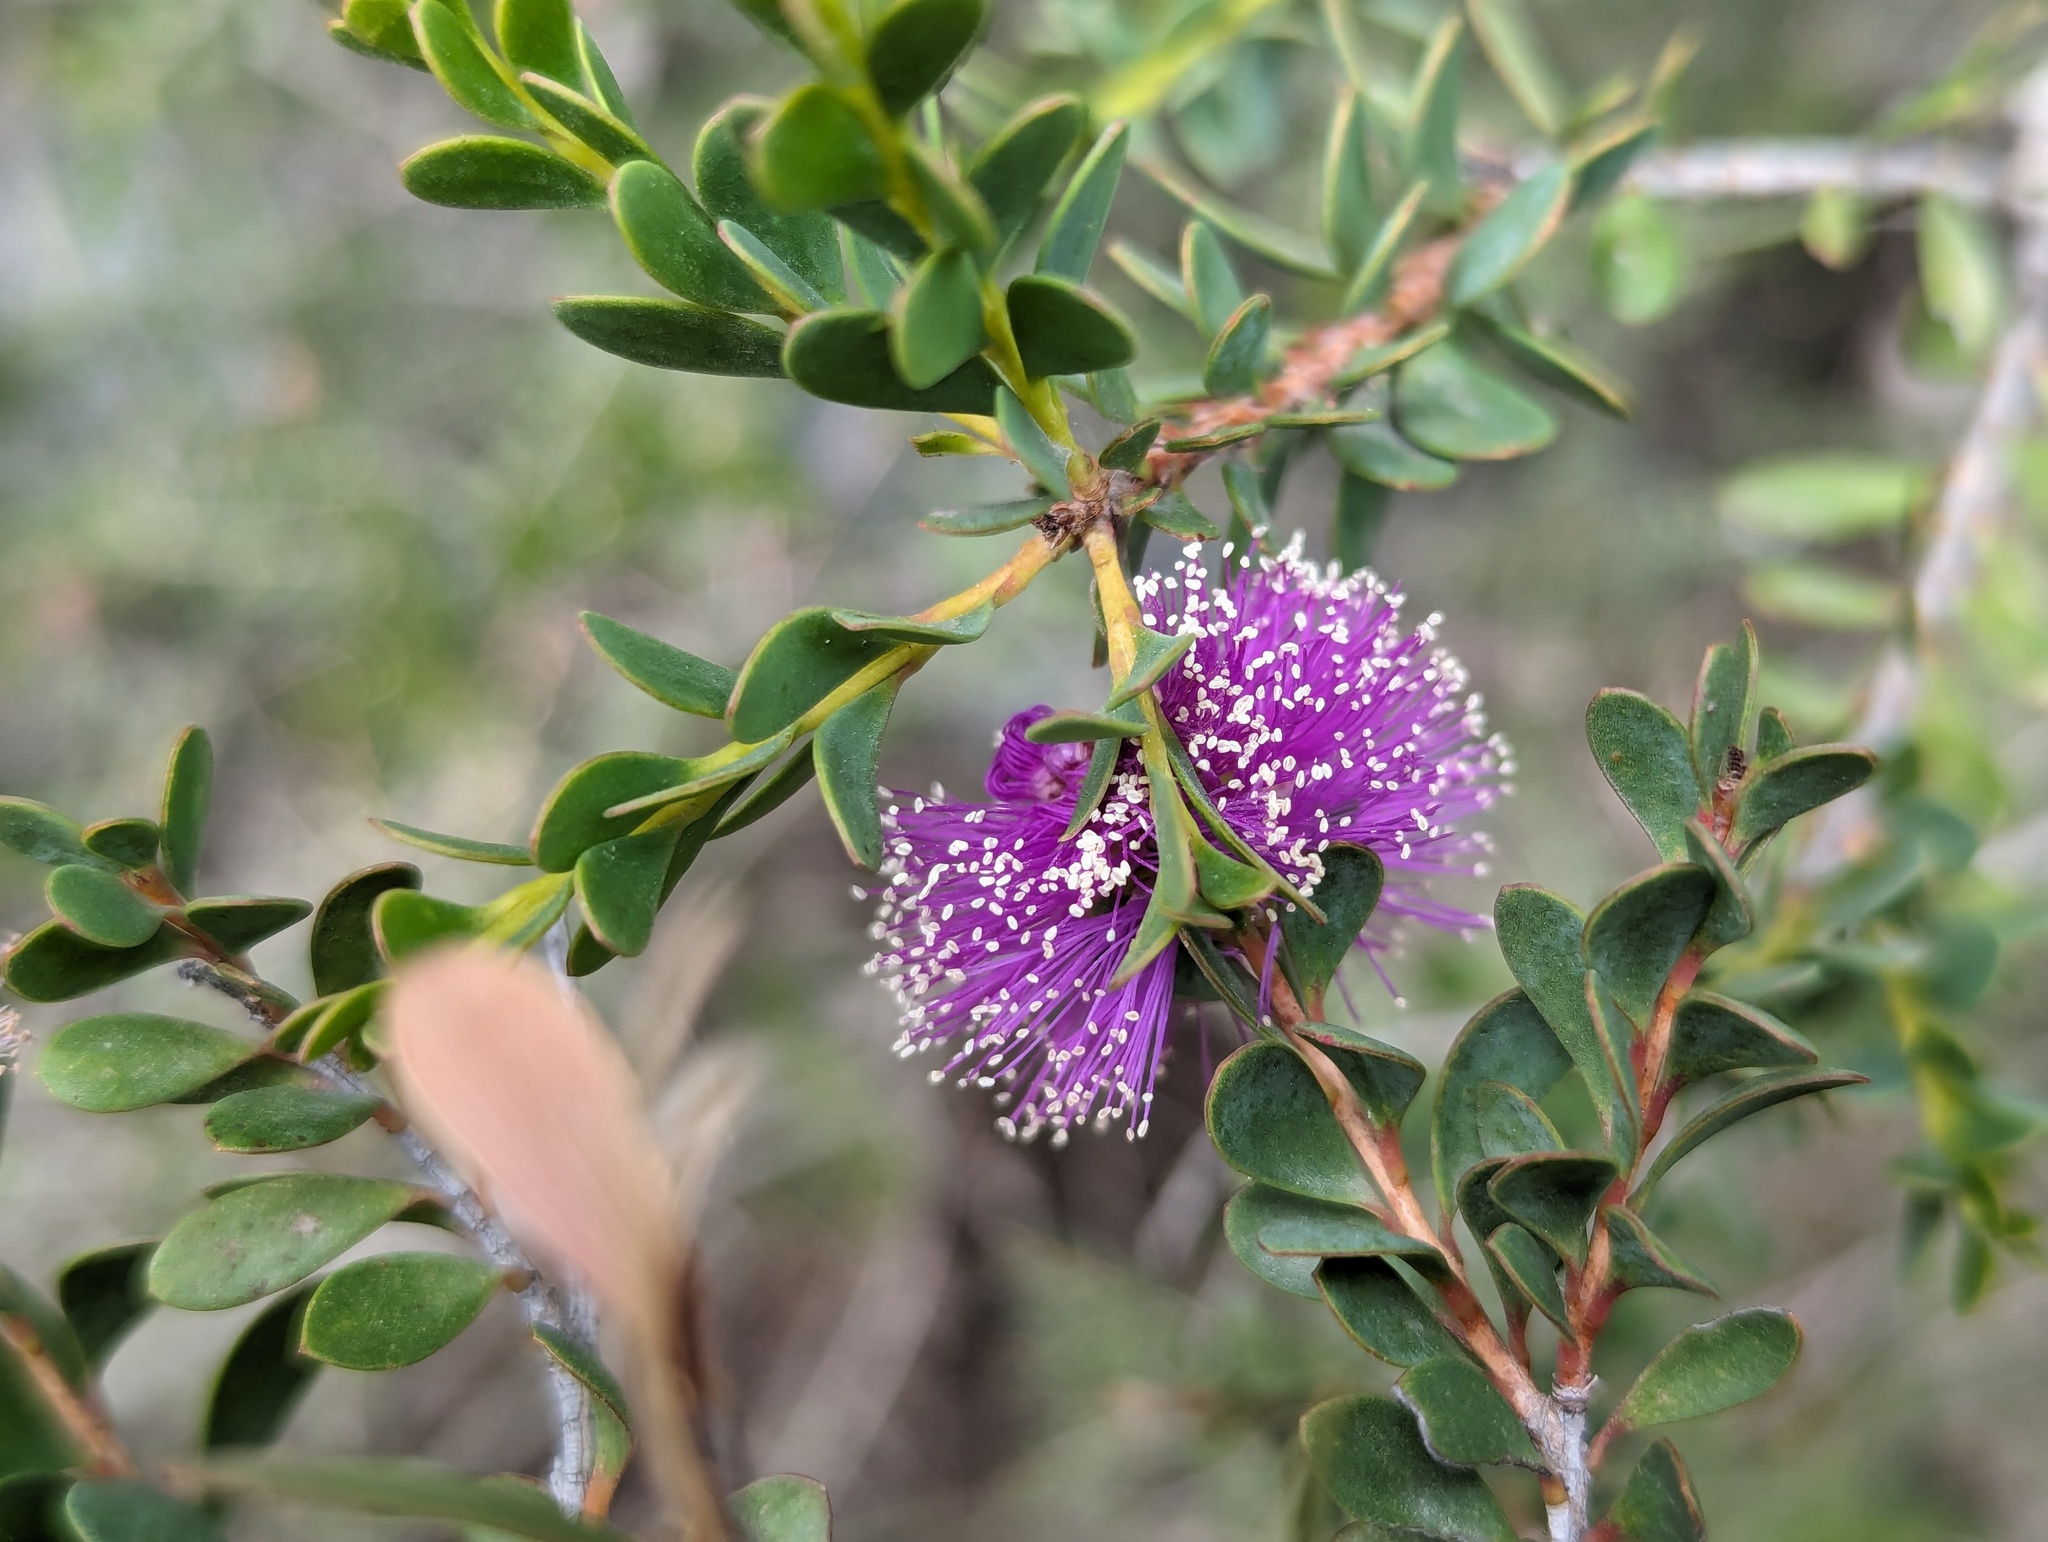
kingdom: Plantae
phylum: Tracheophyta
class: Magnoliopsida
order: Myrtales
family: Myrtaceae
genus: Melaleuca
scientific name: Melaleuca nesophila
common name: Mauve honey myrtle
